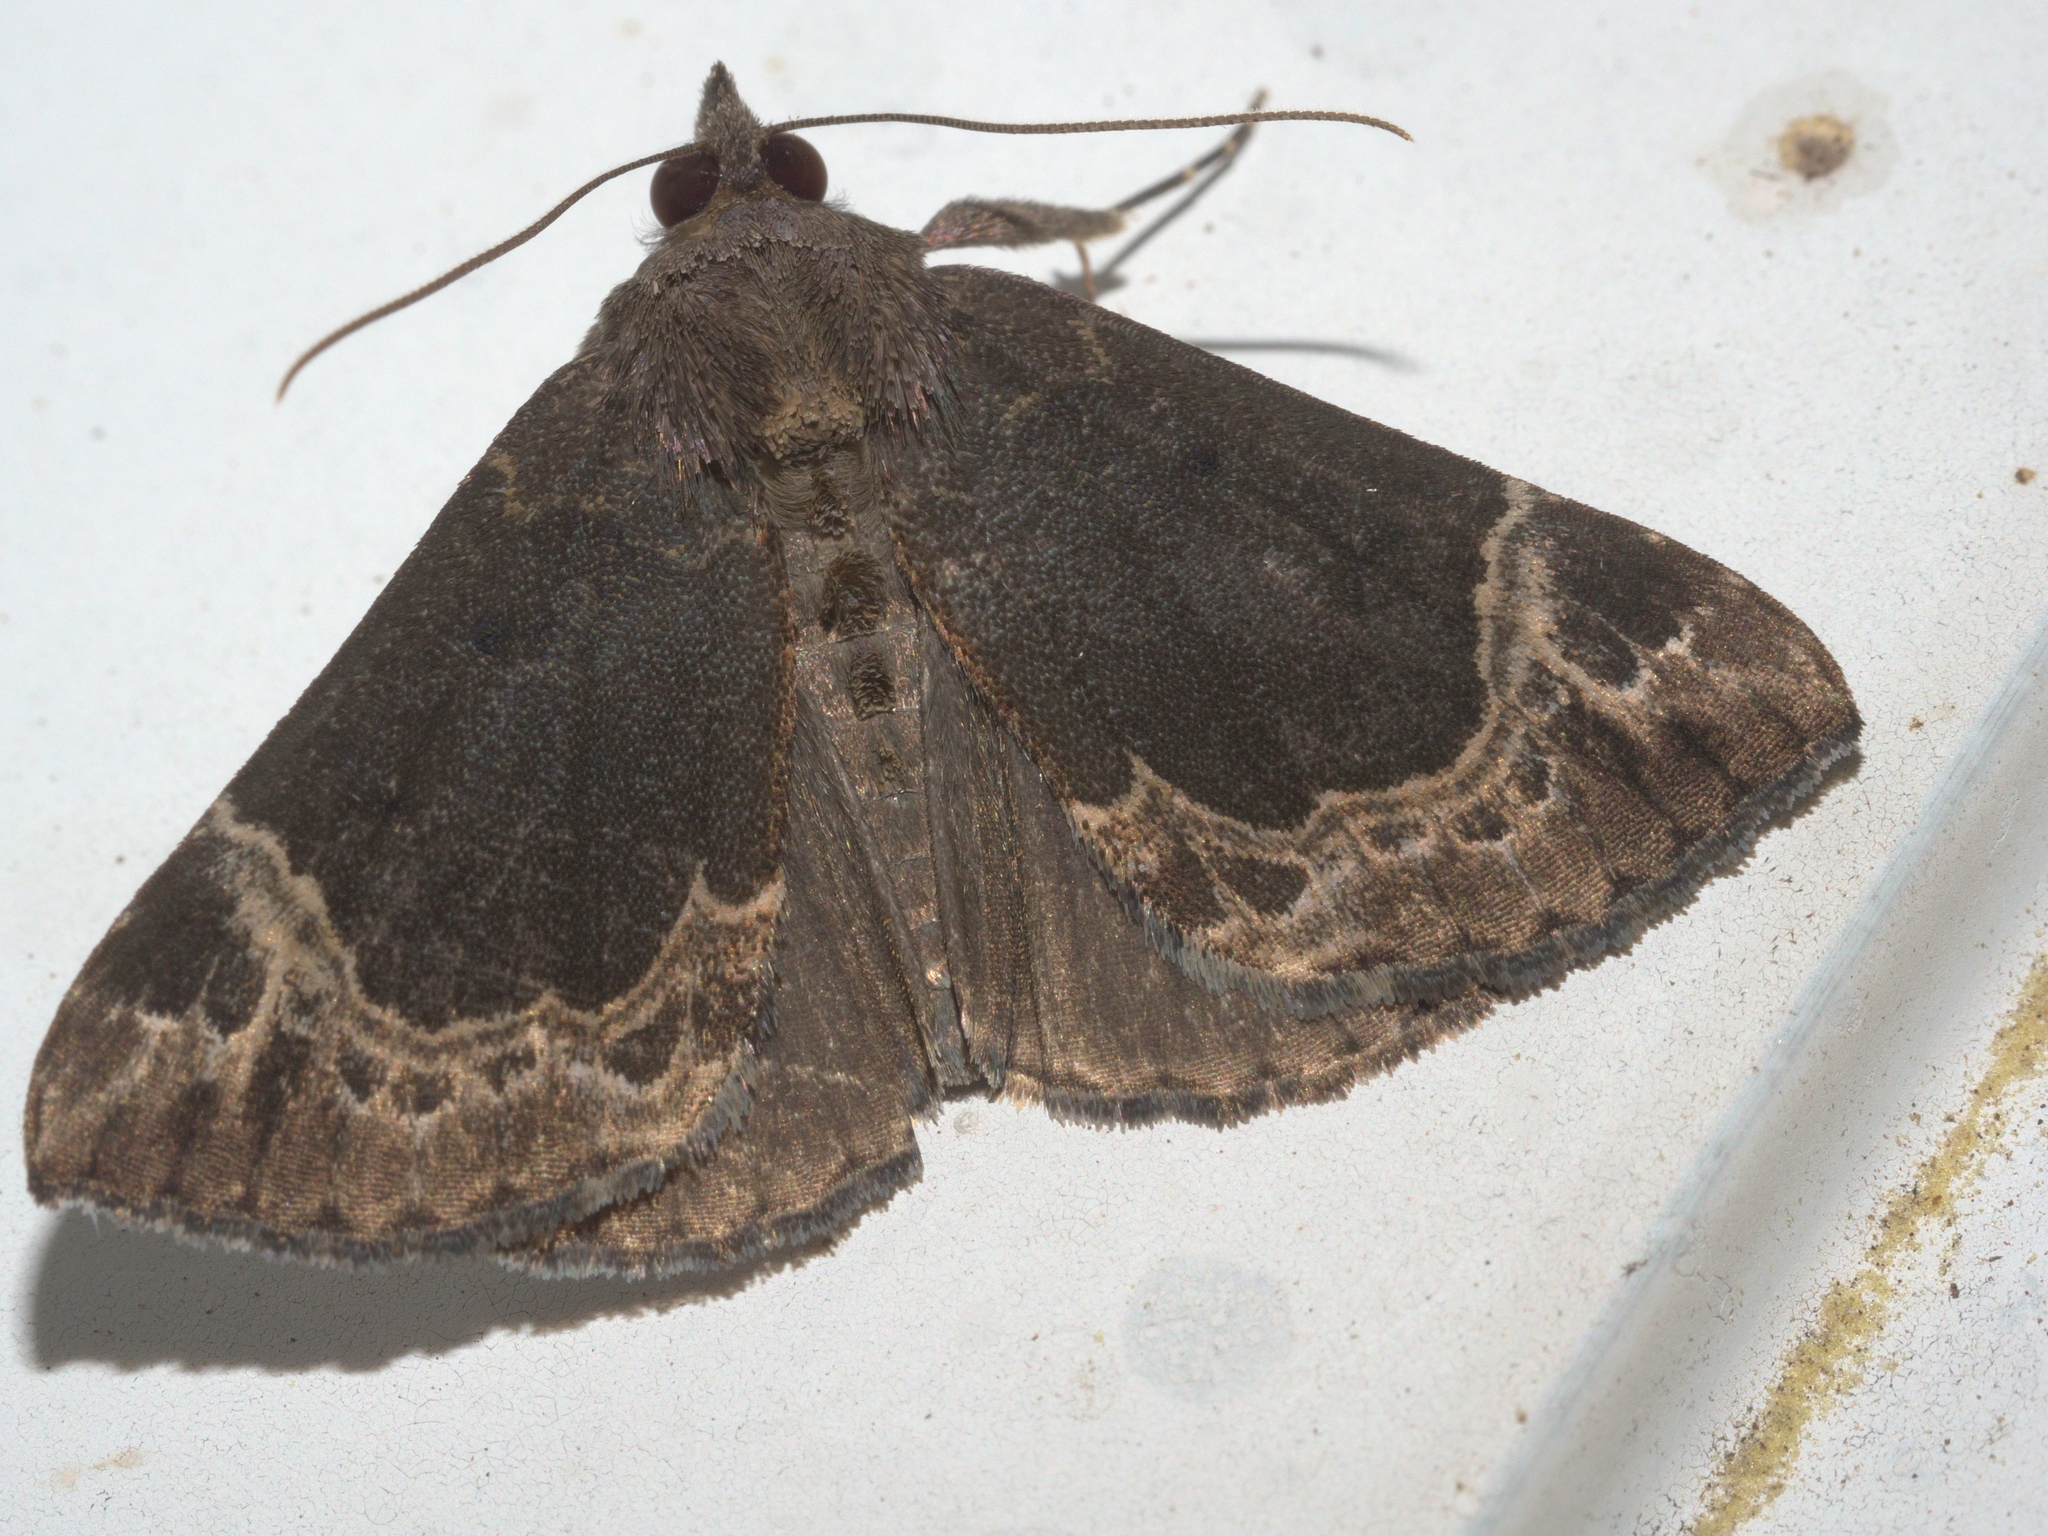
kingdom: Animalia
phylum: Arthropoda
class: Insecta
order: Lepidoptera
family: Erebidae
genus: Hypena
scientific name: Hypena abalienalis
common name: White-lined snout
